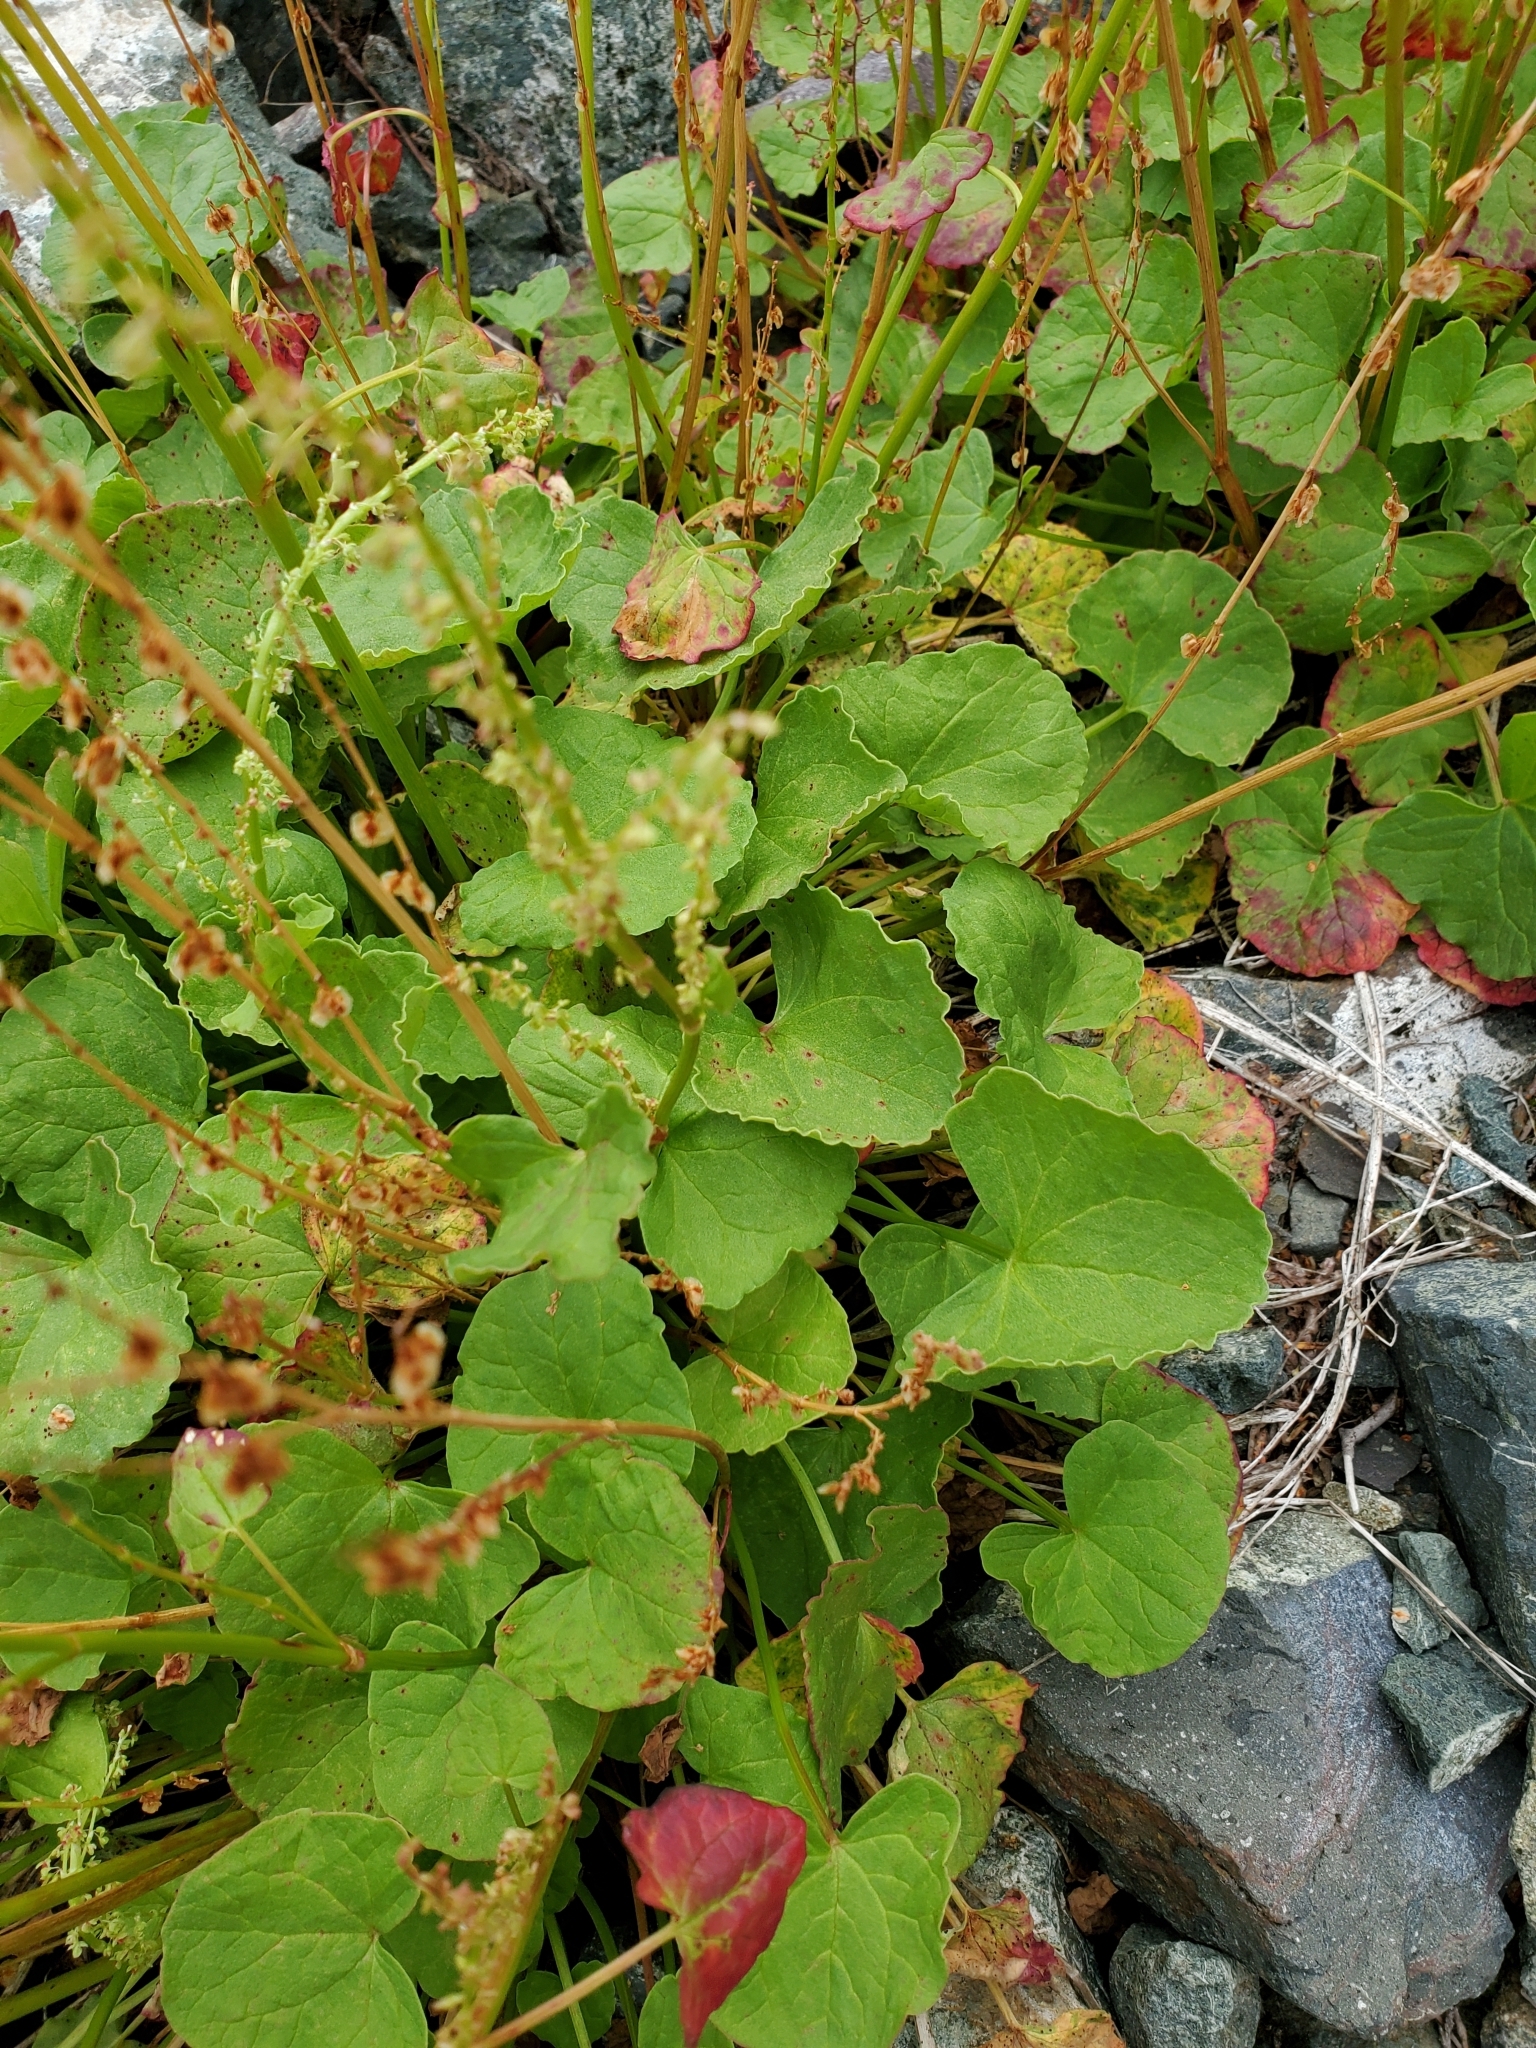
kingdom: Plantae
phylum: Tracheophyta
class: Magnoliopsida
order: Caryophyllales
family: Polygonaceae
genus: Oxyria
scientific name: Oxyria digyna
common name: Alpine mountain-sorrel
